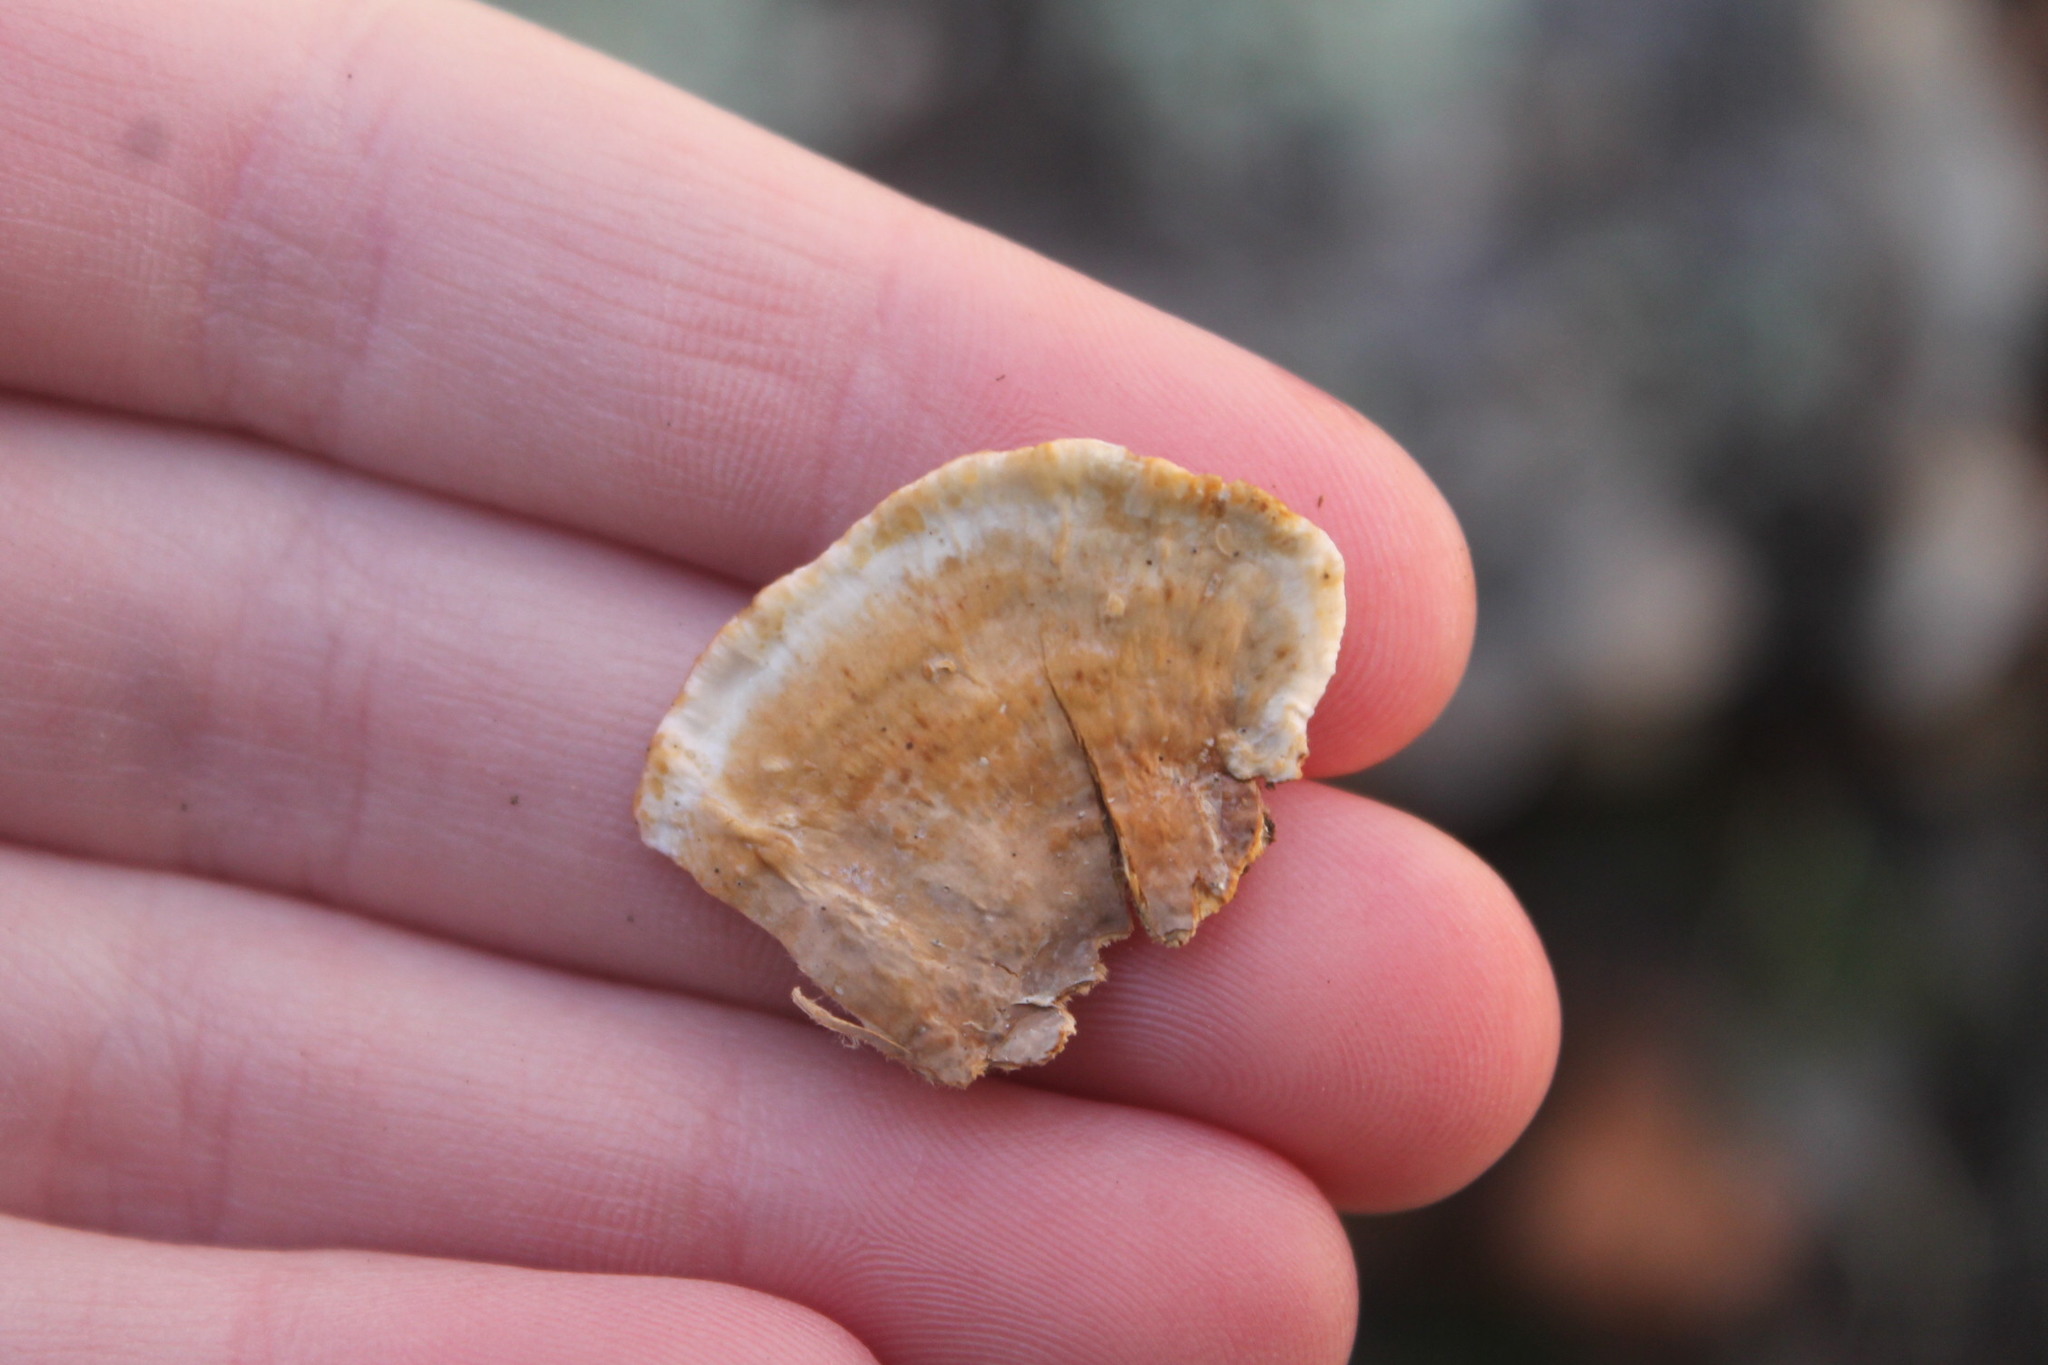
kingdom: Fungi
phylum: Basidiomycota
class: Agaricomycetes
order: Russulales
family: Stereaceae
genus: Stereum
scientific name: Stereum subtomentosum
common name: Yellowing curtain crust
